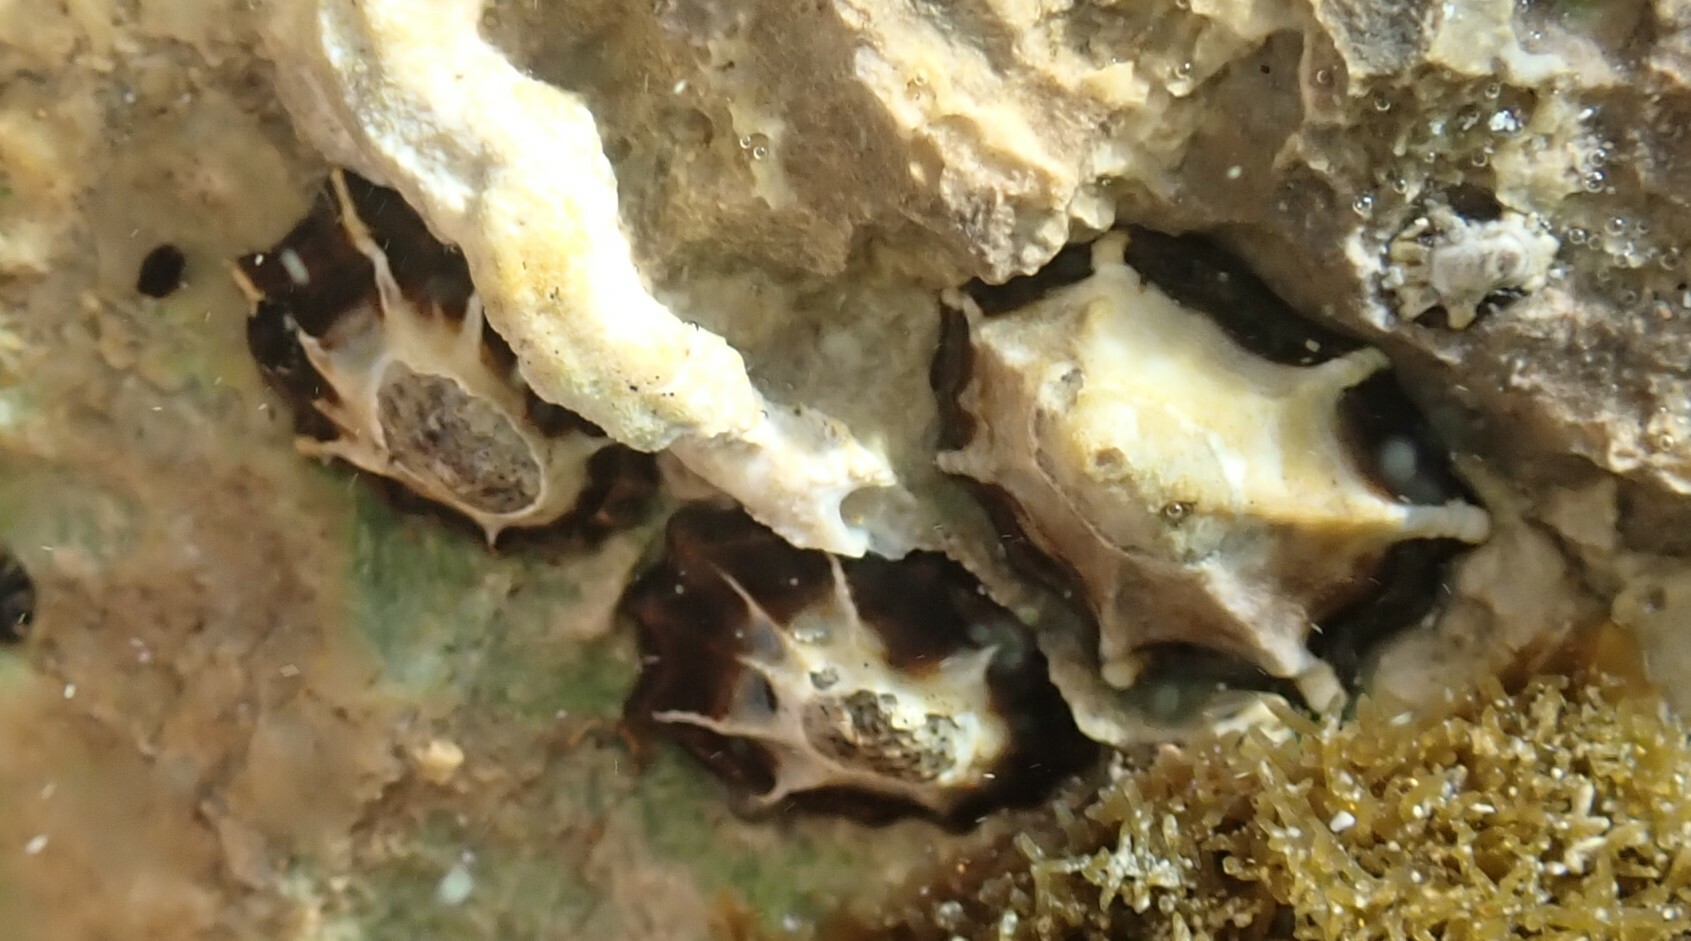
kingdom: Animalia
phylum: Mollusca
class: Gastropoda
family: Lottiidae
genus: Patelloida
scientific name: Patelloida latistrigata
